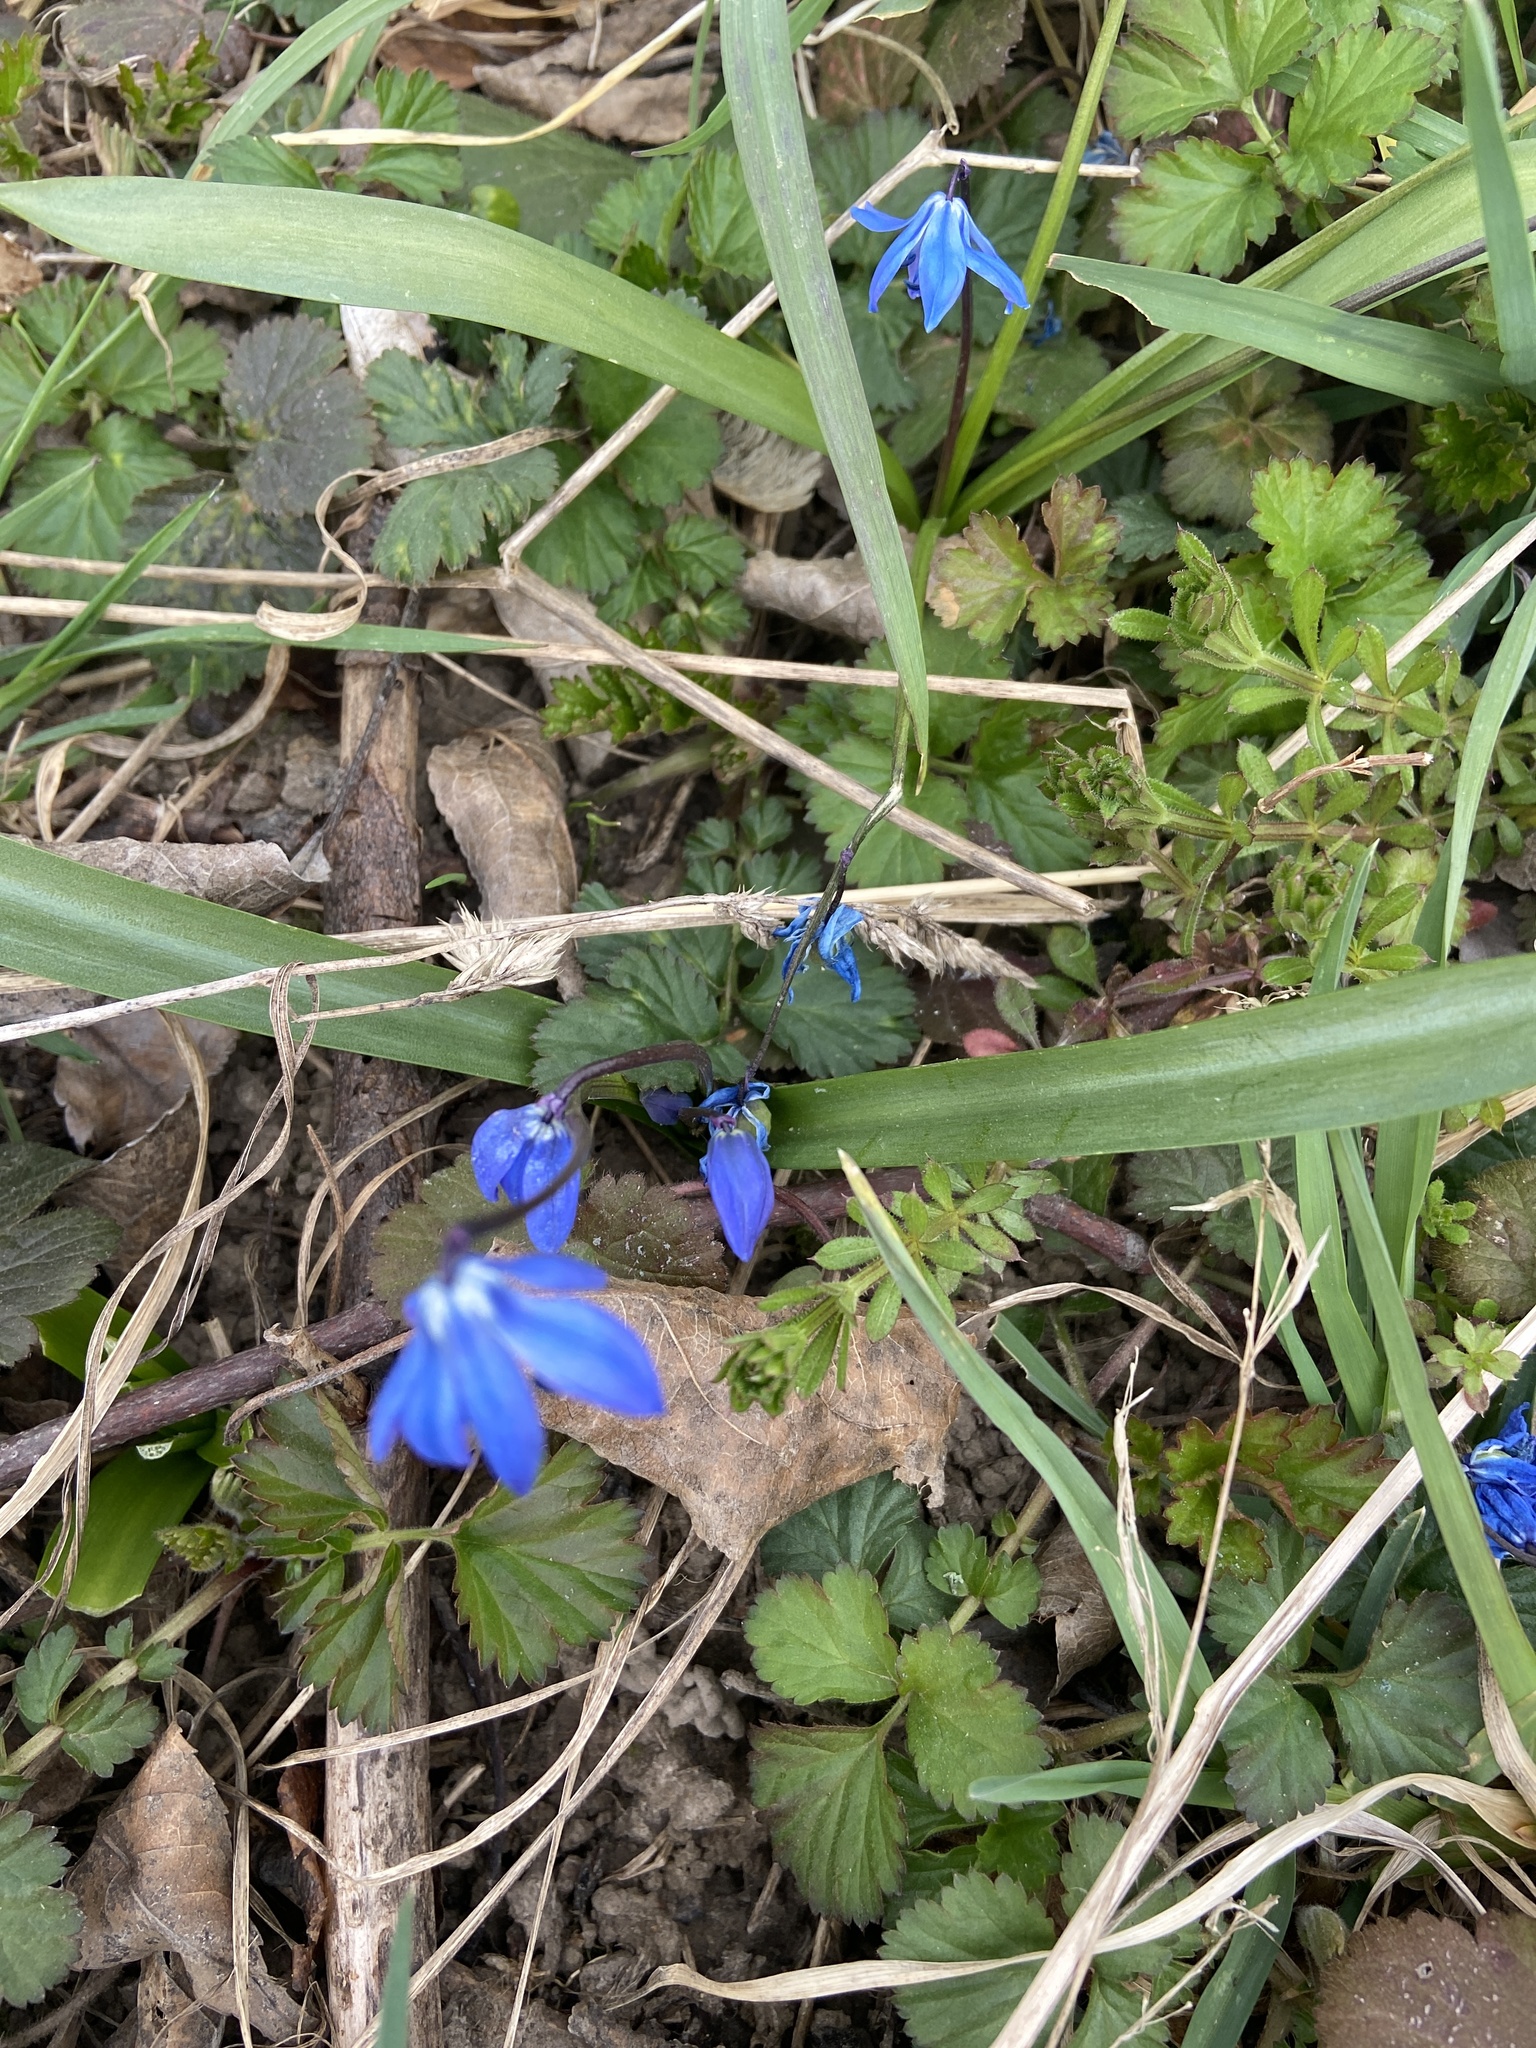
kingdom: Plantae
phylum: Tracheophyta
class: Liliopsida
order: Asparagales
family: Asparagaceae
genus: Scilla
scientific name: Scilla siberica
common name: Siberian squill
